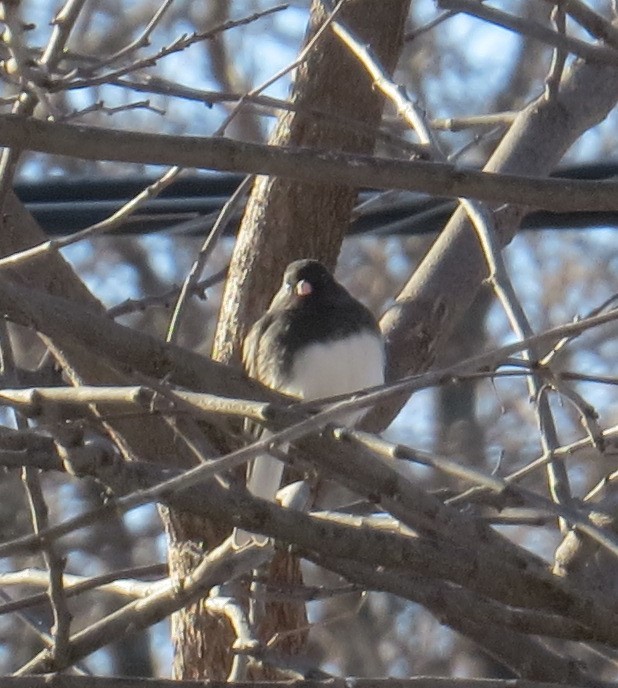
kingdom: Animalia
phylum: Chordata
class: Aves
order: Passeriformes
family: Passerellidae
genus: Junco
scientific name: Junco hyemalis
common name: Dark-eyed junco
